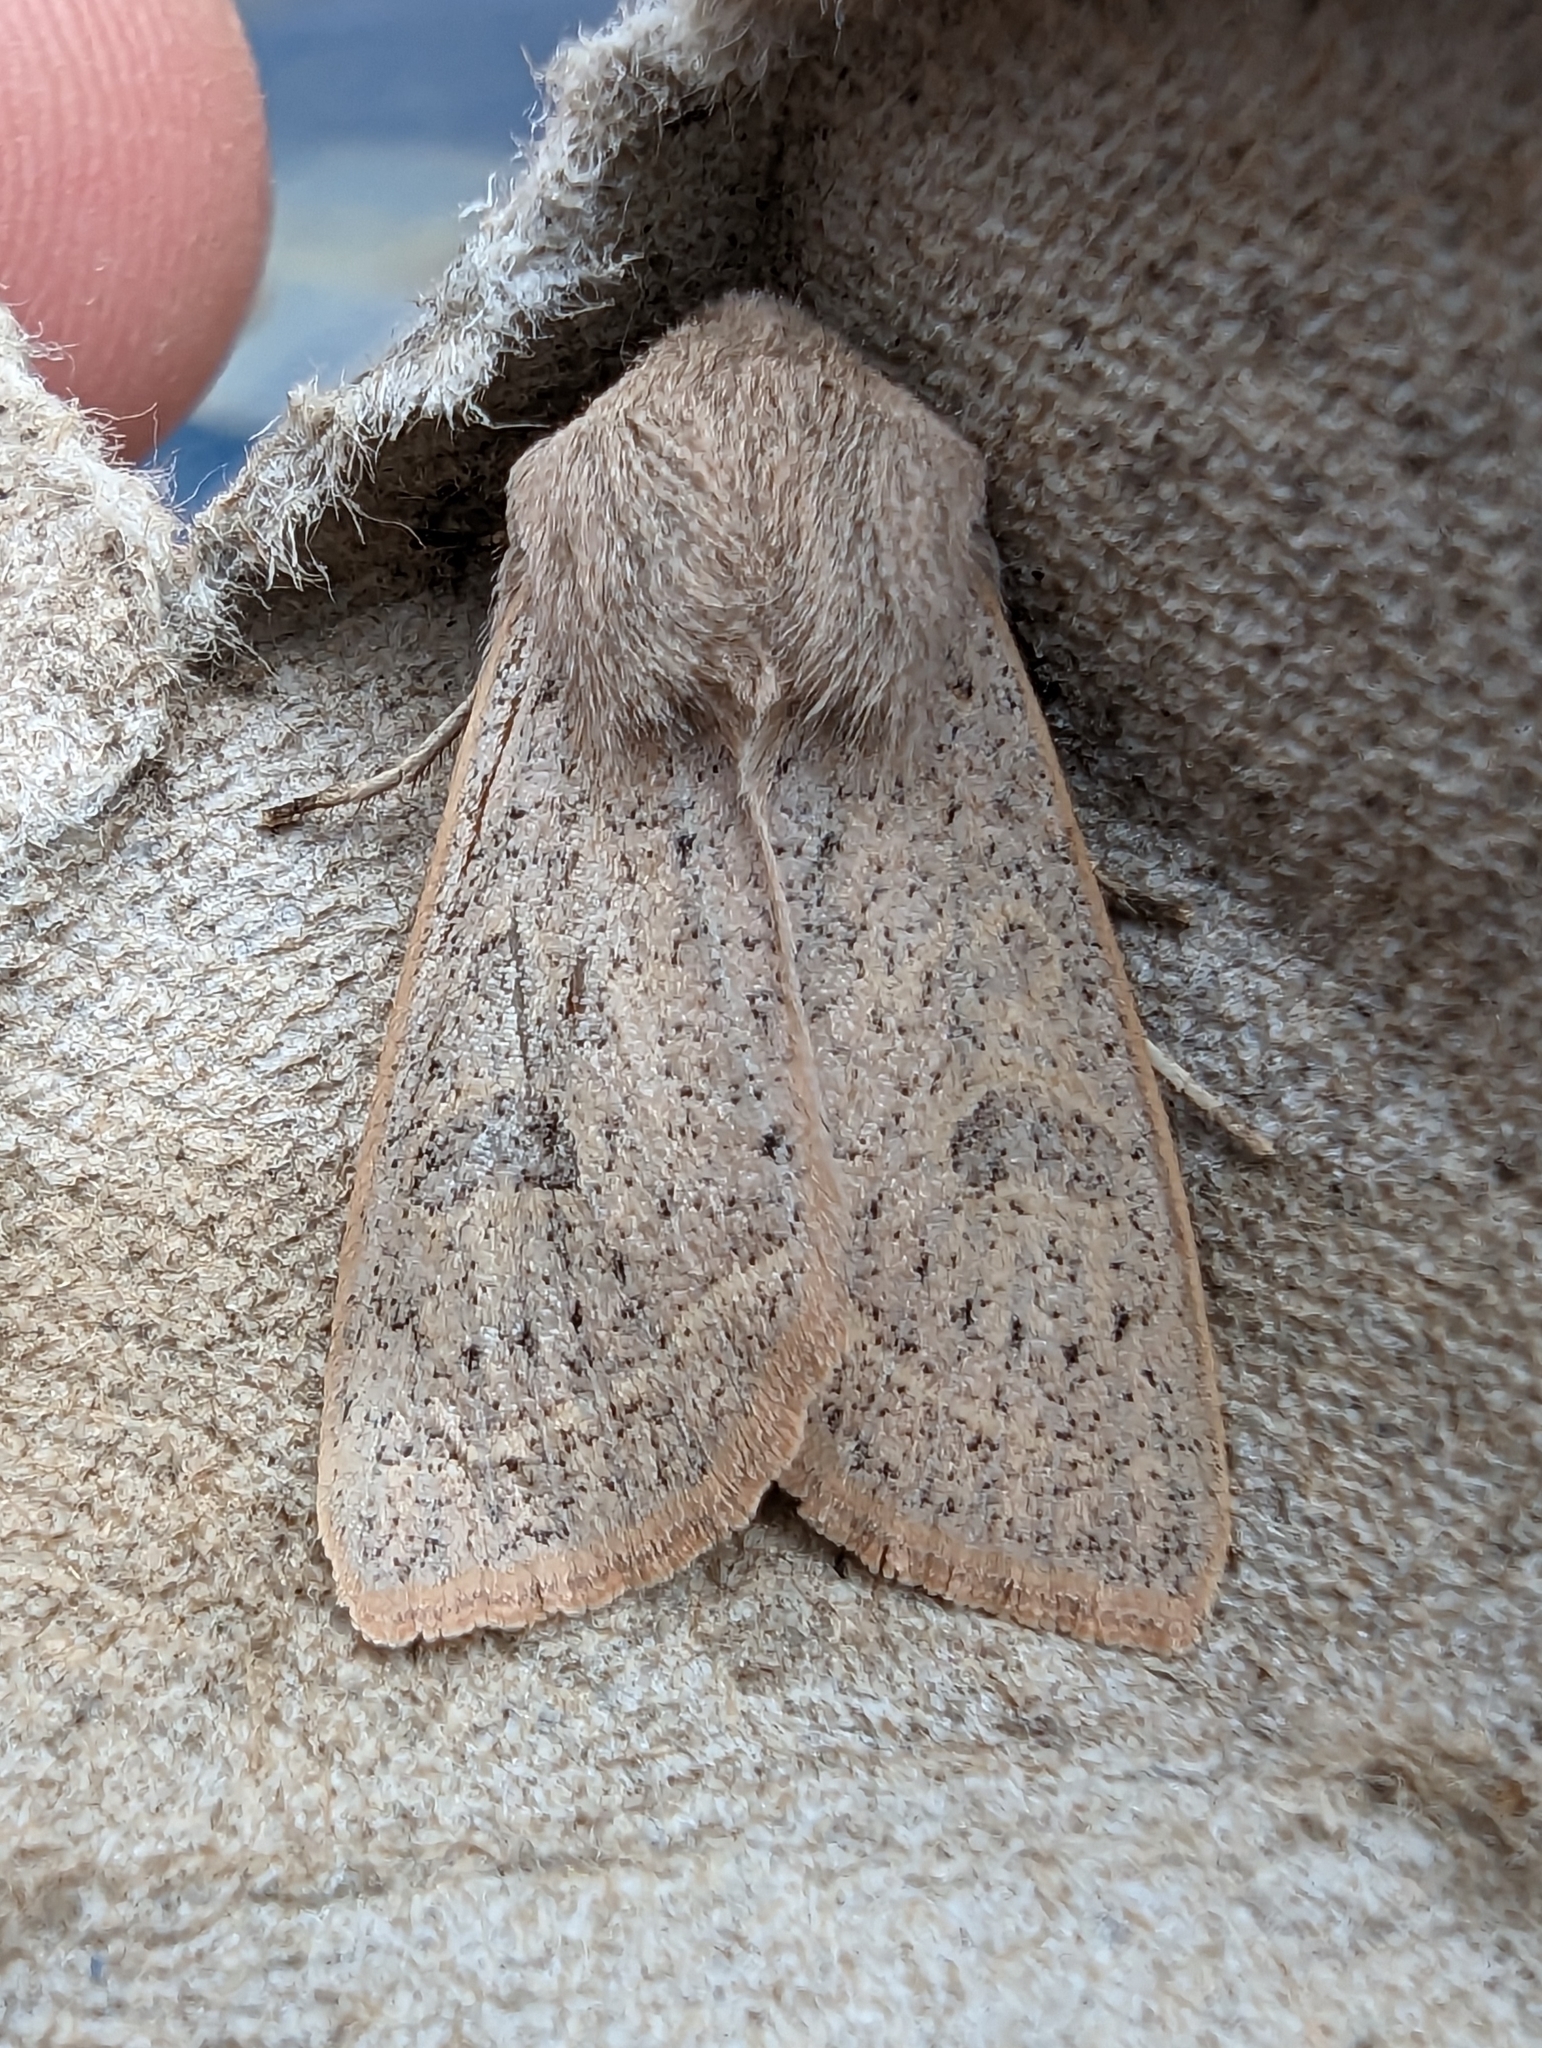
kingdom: Animalia
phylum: Arthropoda
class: Insecta
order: Lepidoptera
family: Noctuidae
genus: Orthosia
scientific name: Orthosia gracilis
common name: Powdered quaker
